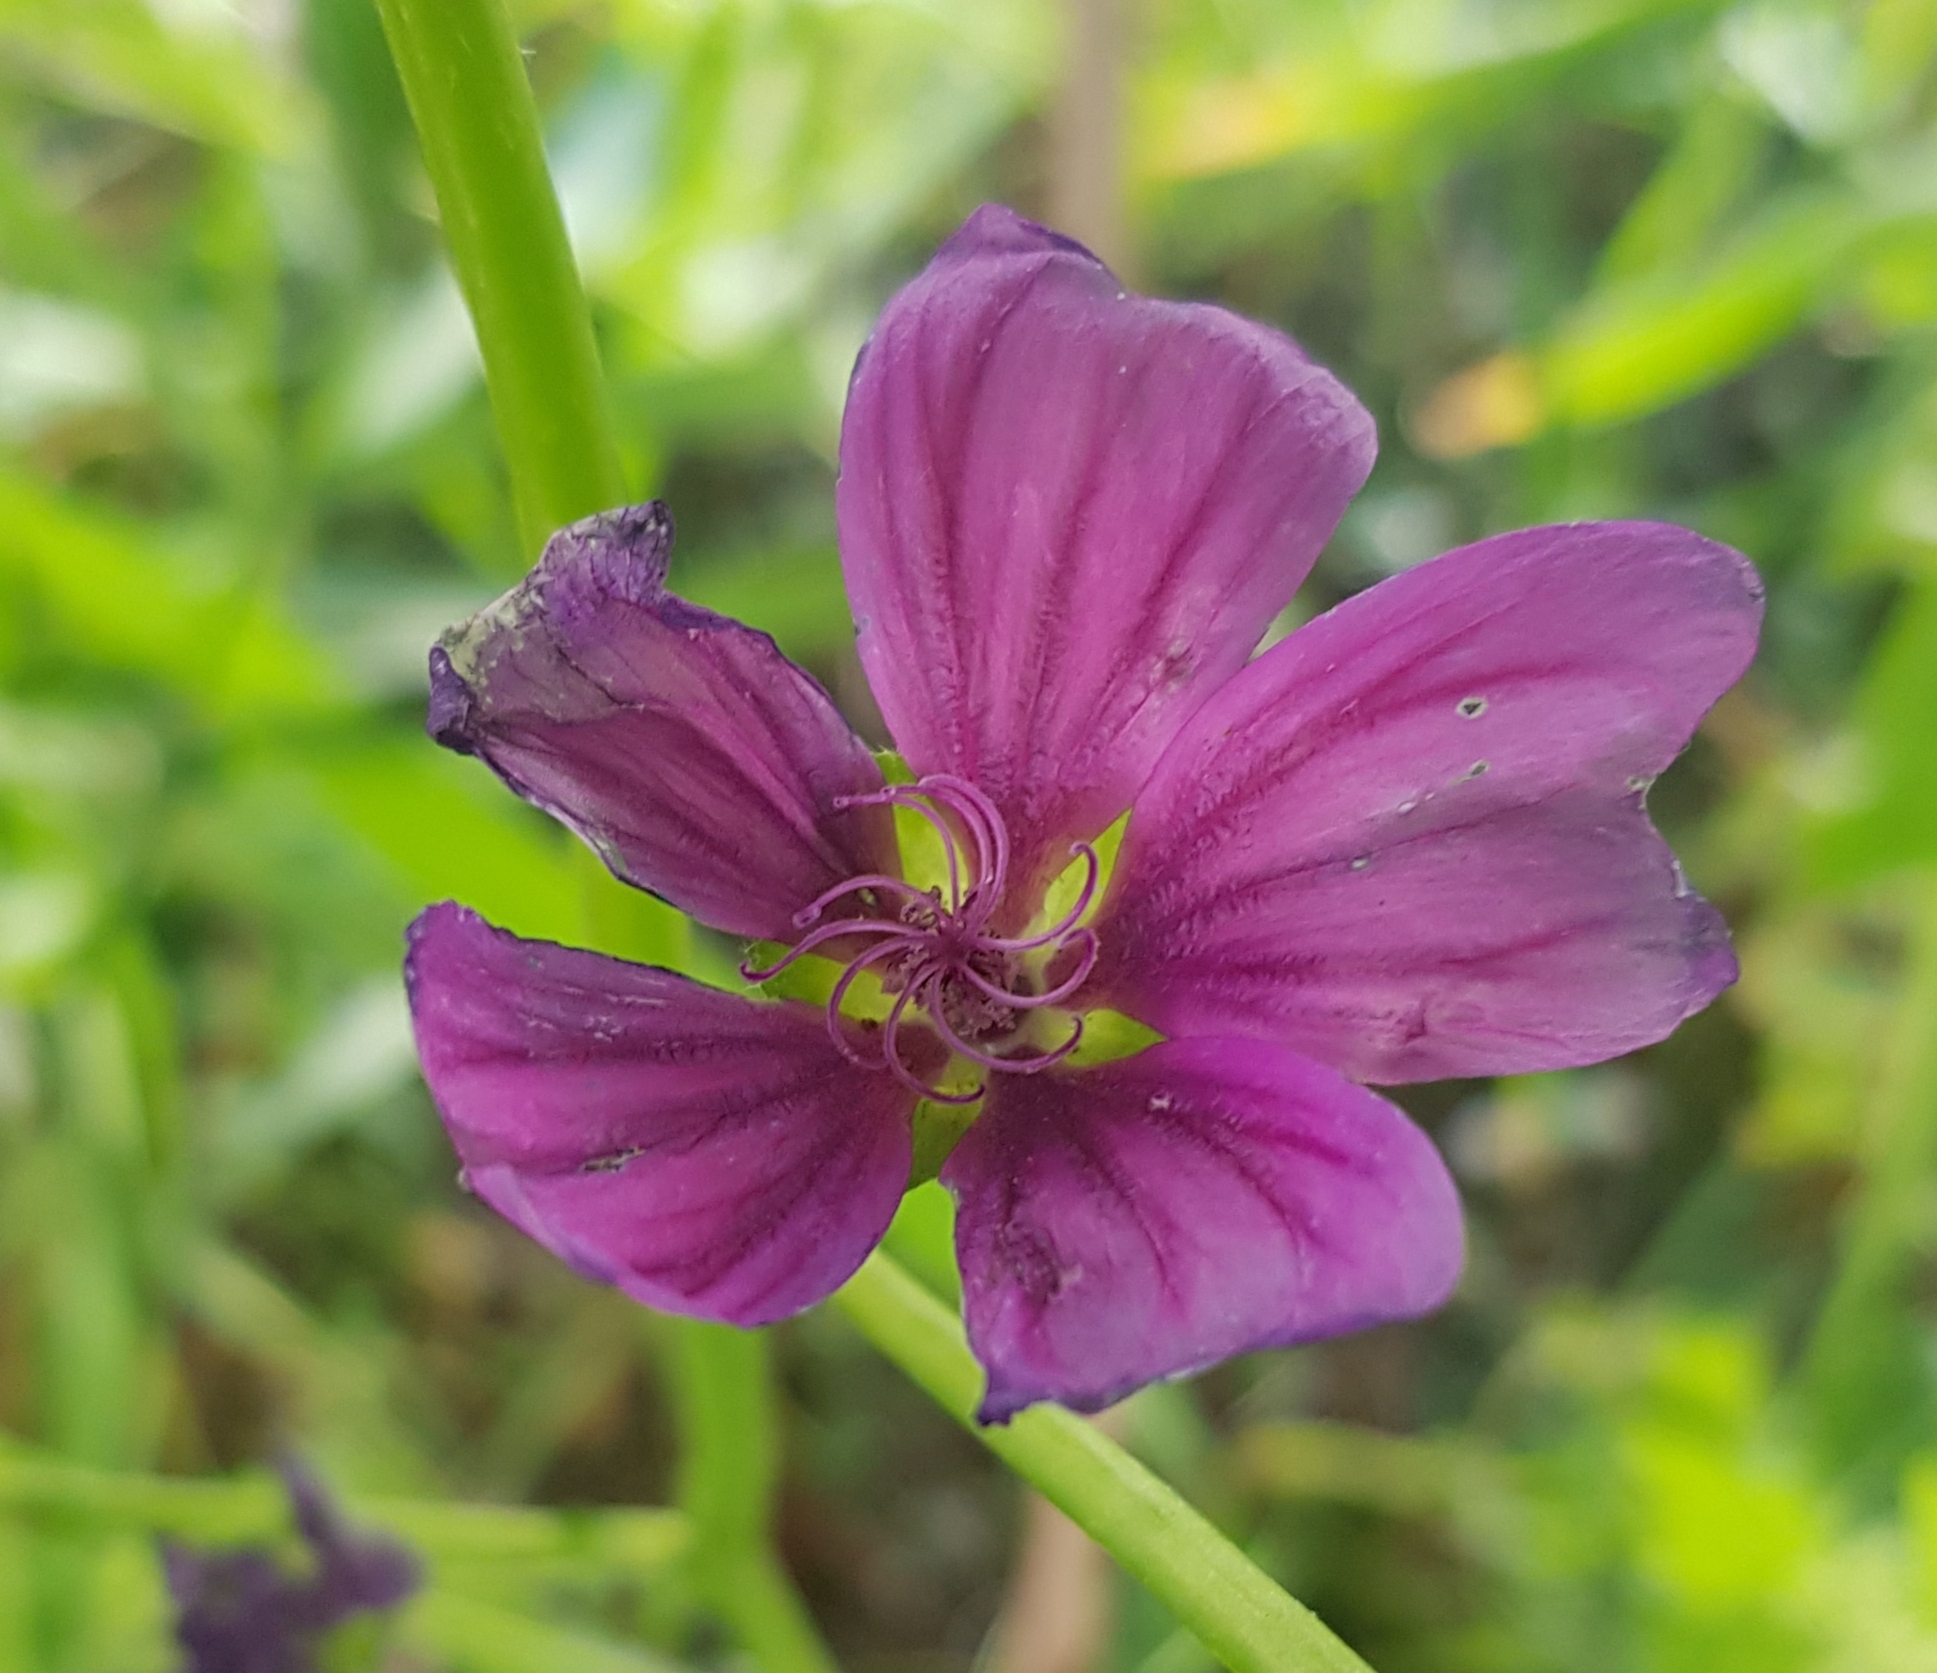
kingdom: Plantae
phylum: Tracheophyta
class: Magnoliopsida
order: Malvales
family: Malvaceae
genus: Malva
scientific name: Malva sylvestris
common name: Common mallow
